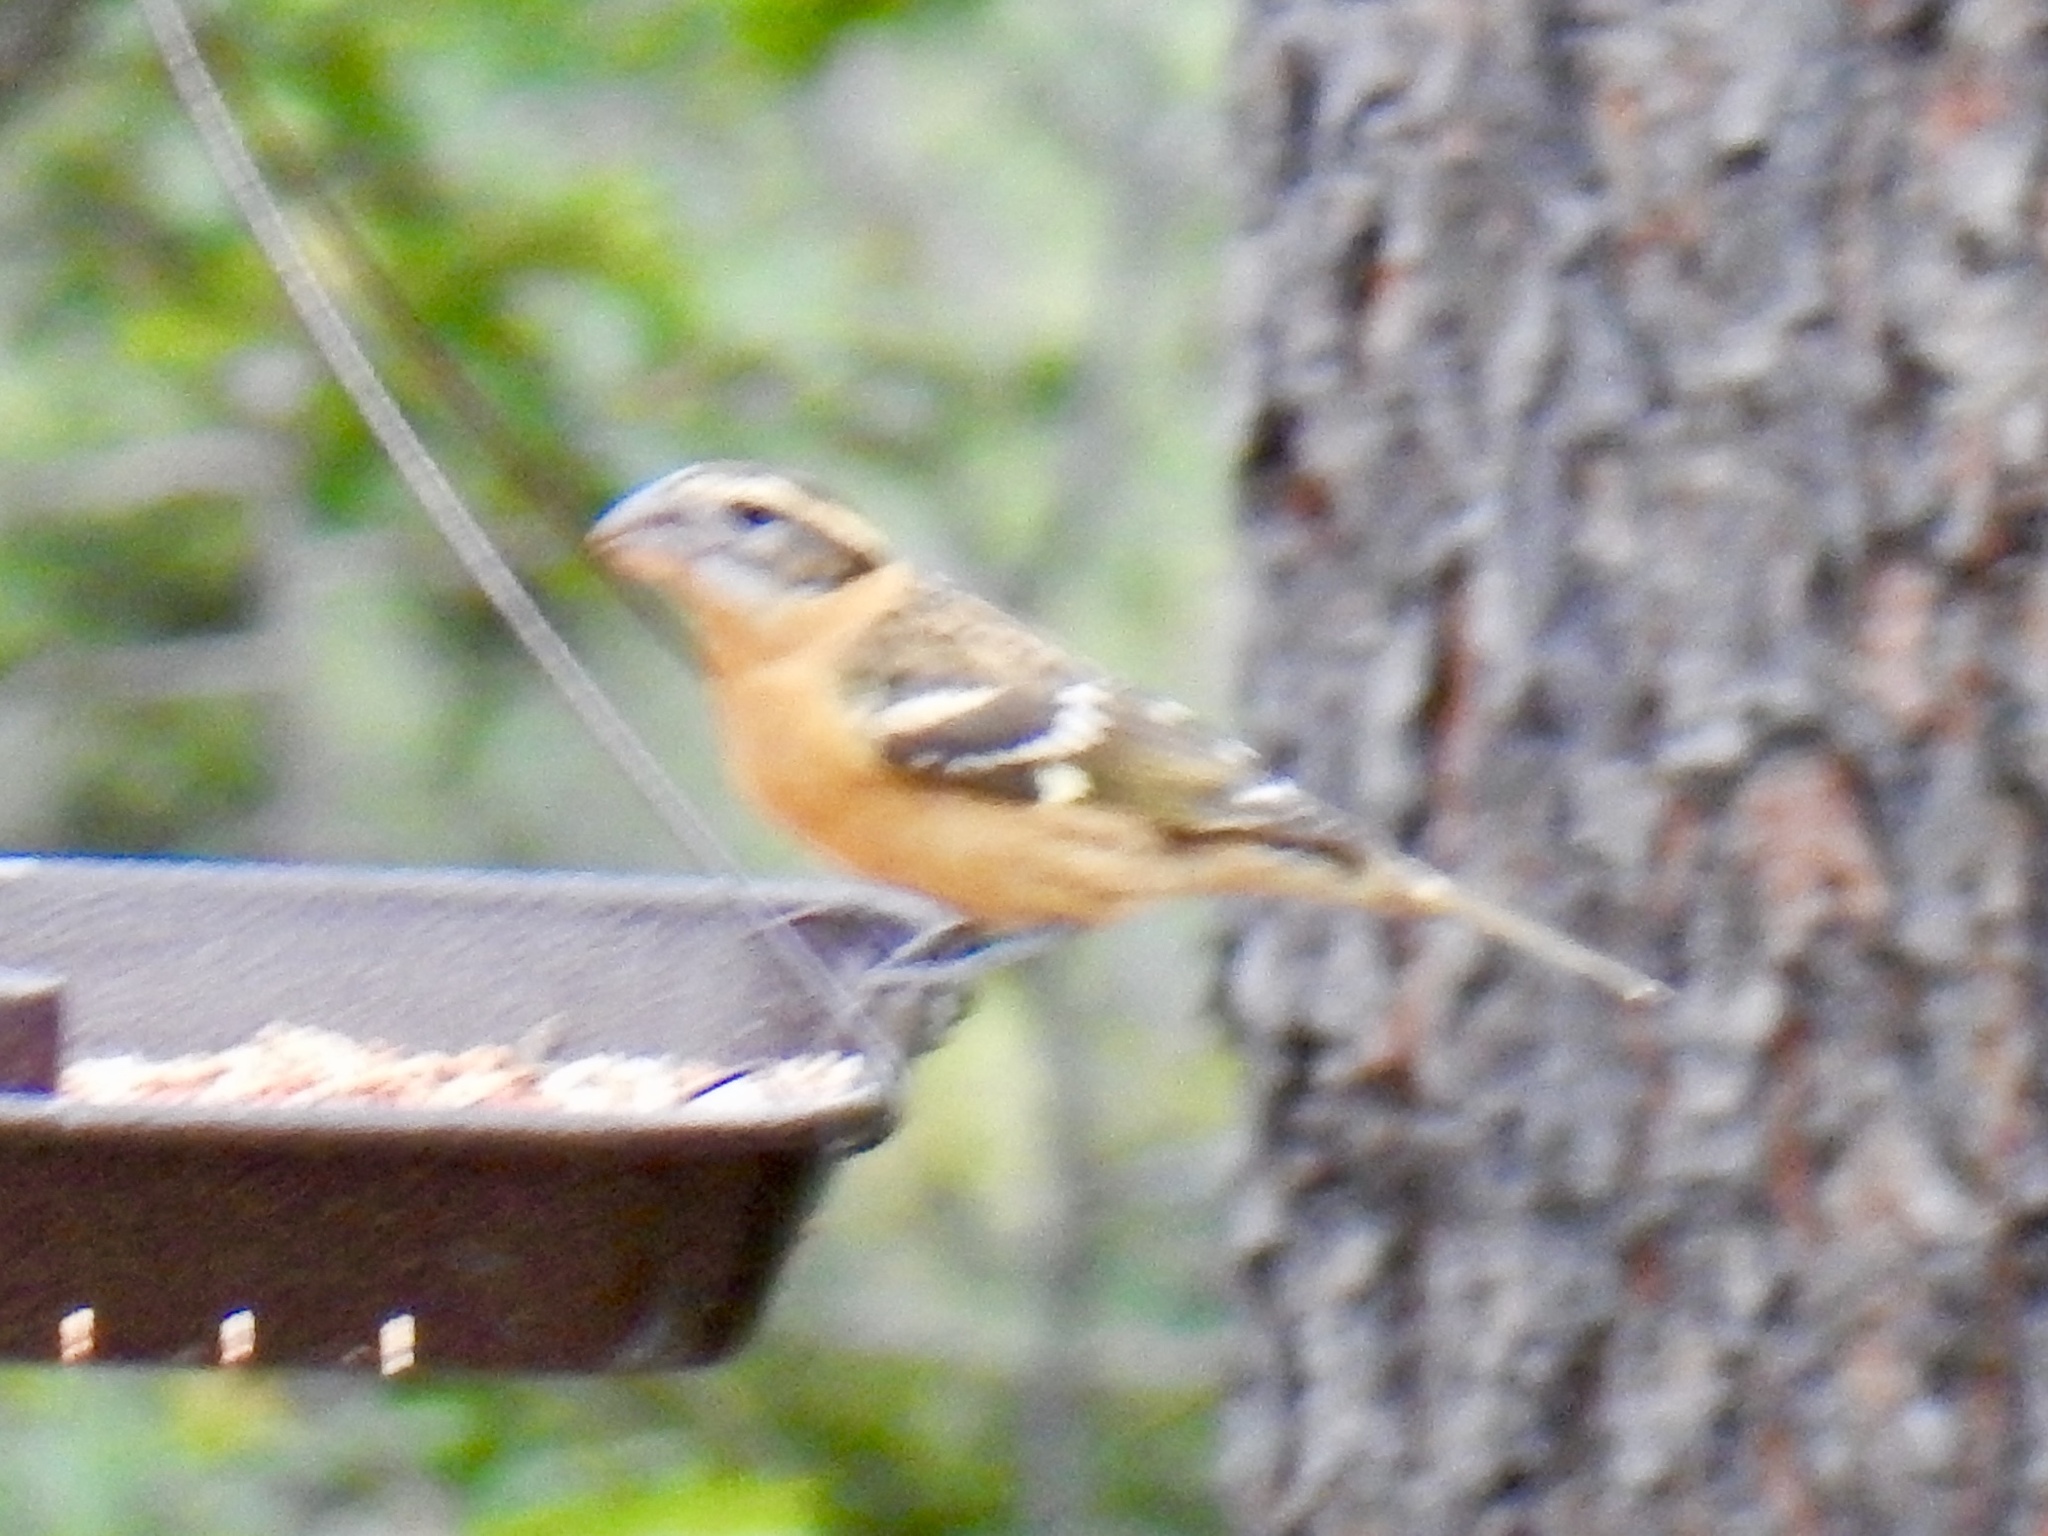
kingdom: Animalia
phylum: Chordata
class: Aves
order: Passeriformes
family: Cardinalidae
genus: Pheucticus
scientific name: Pheucticus melanocephalus
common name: Black-headed grosbeak
